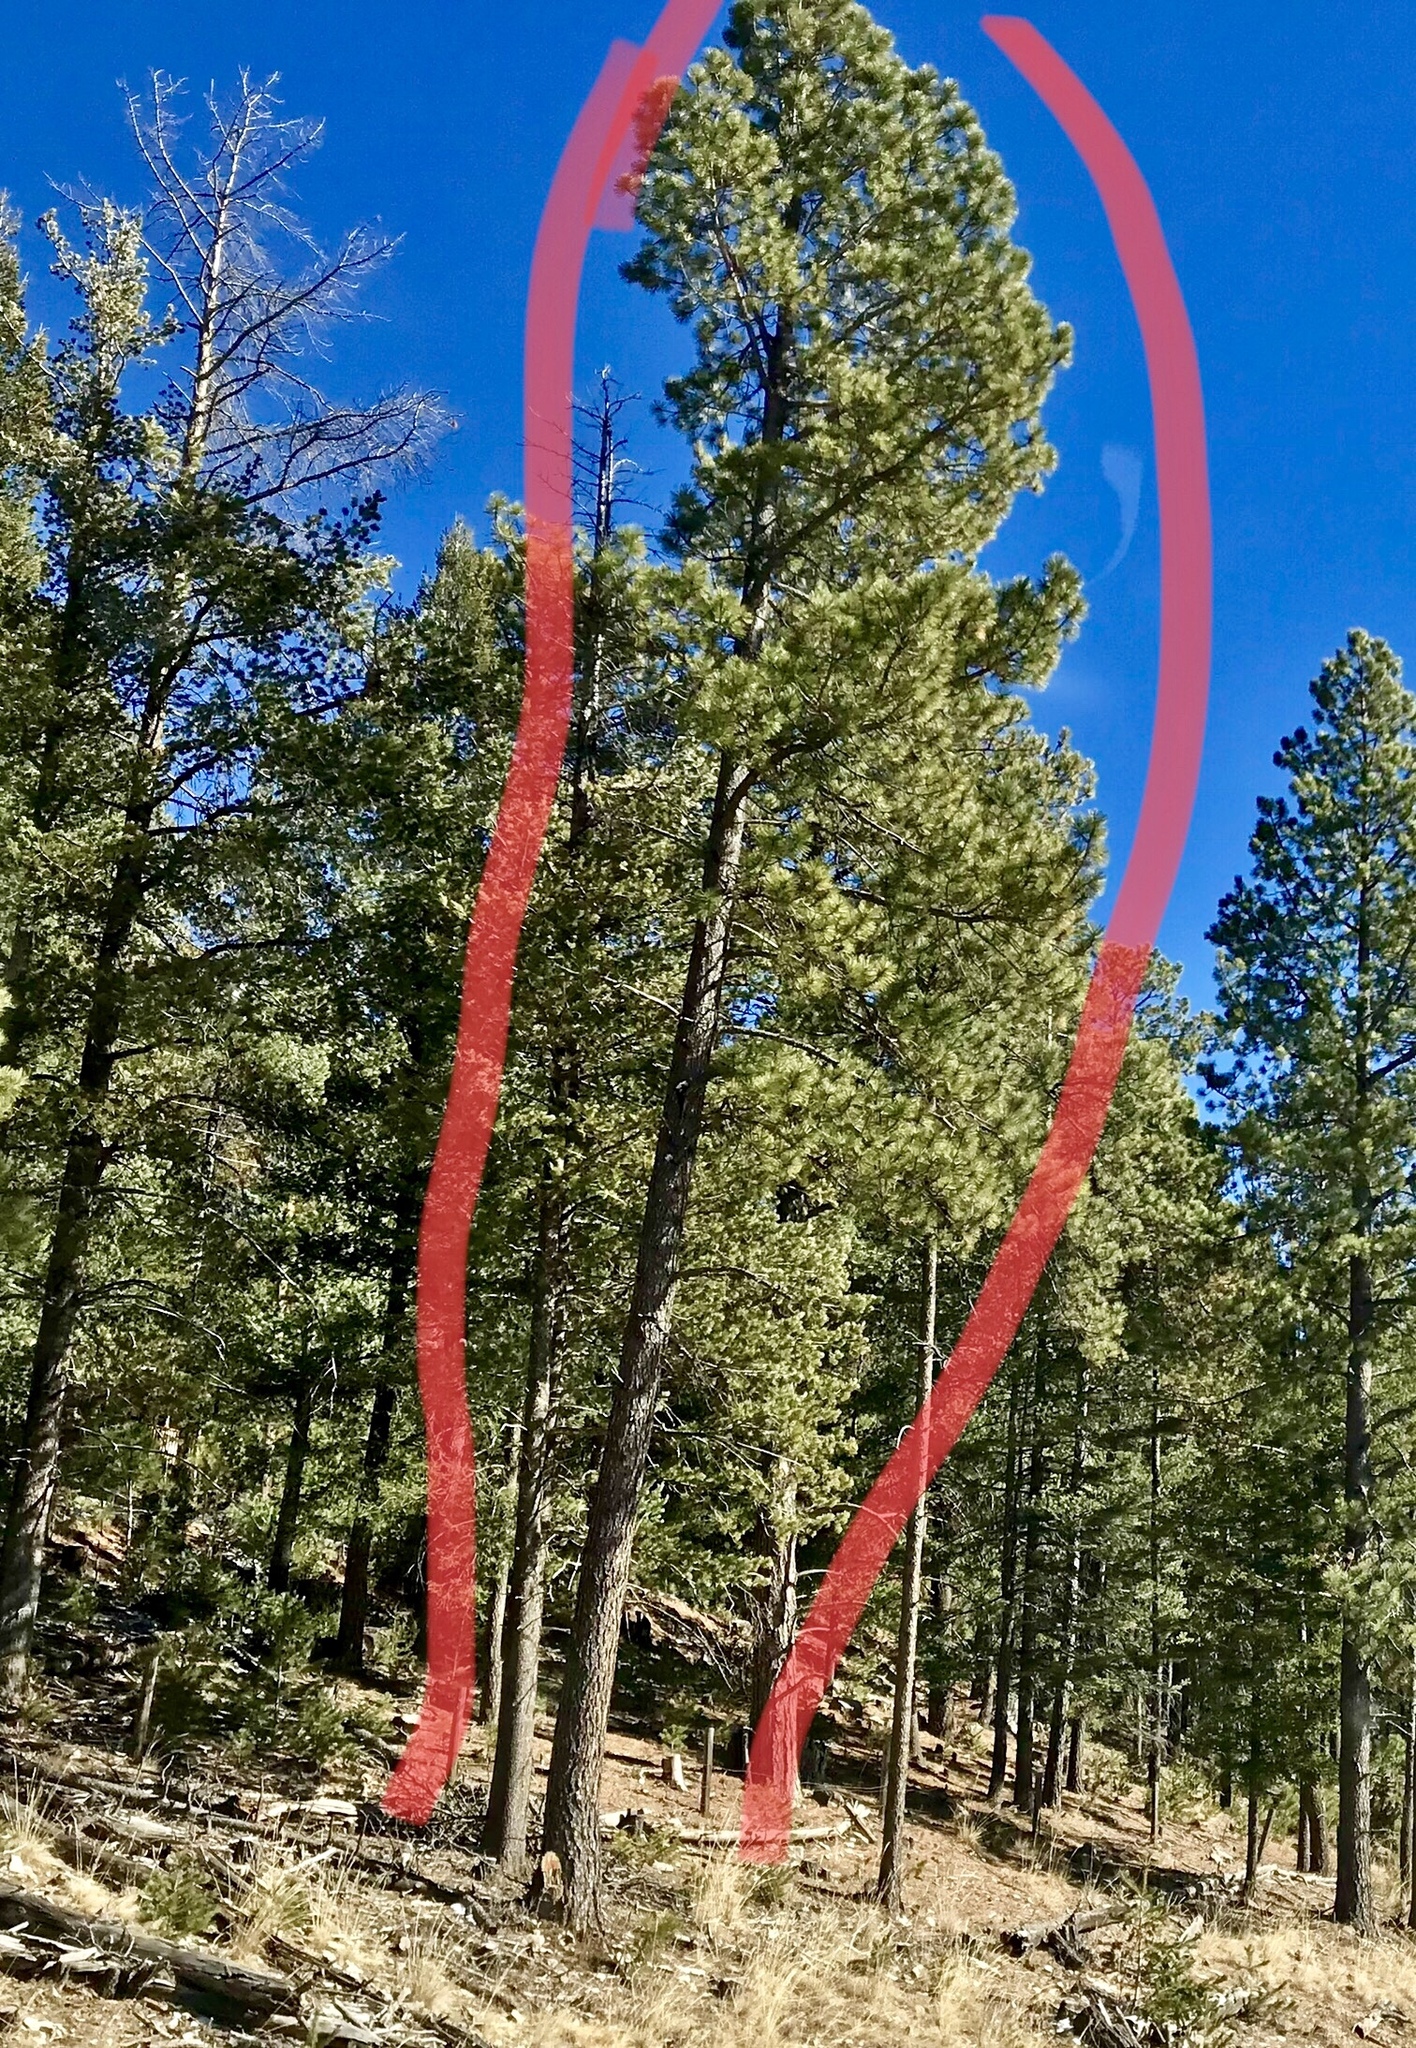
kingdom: Plantae
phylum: Tracheophyta
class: Pinopsida
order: Pinales
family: Pinaceae
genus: Pinus
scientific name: Pinus ponderosa
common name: Western yellow-pine
